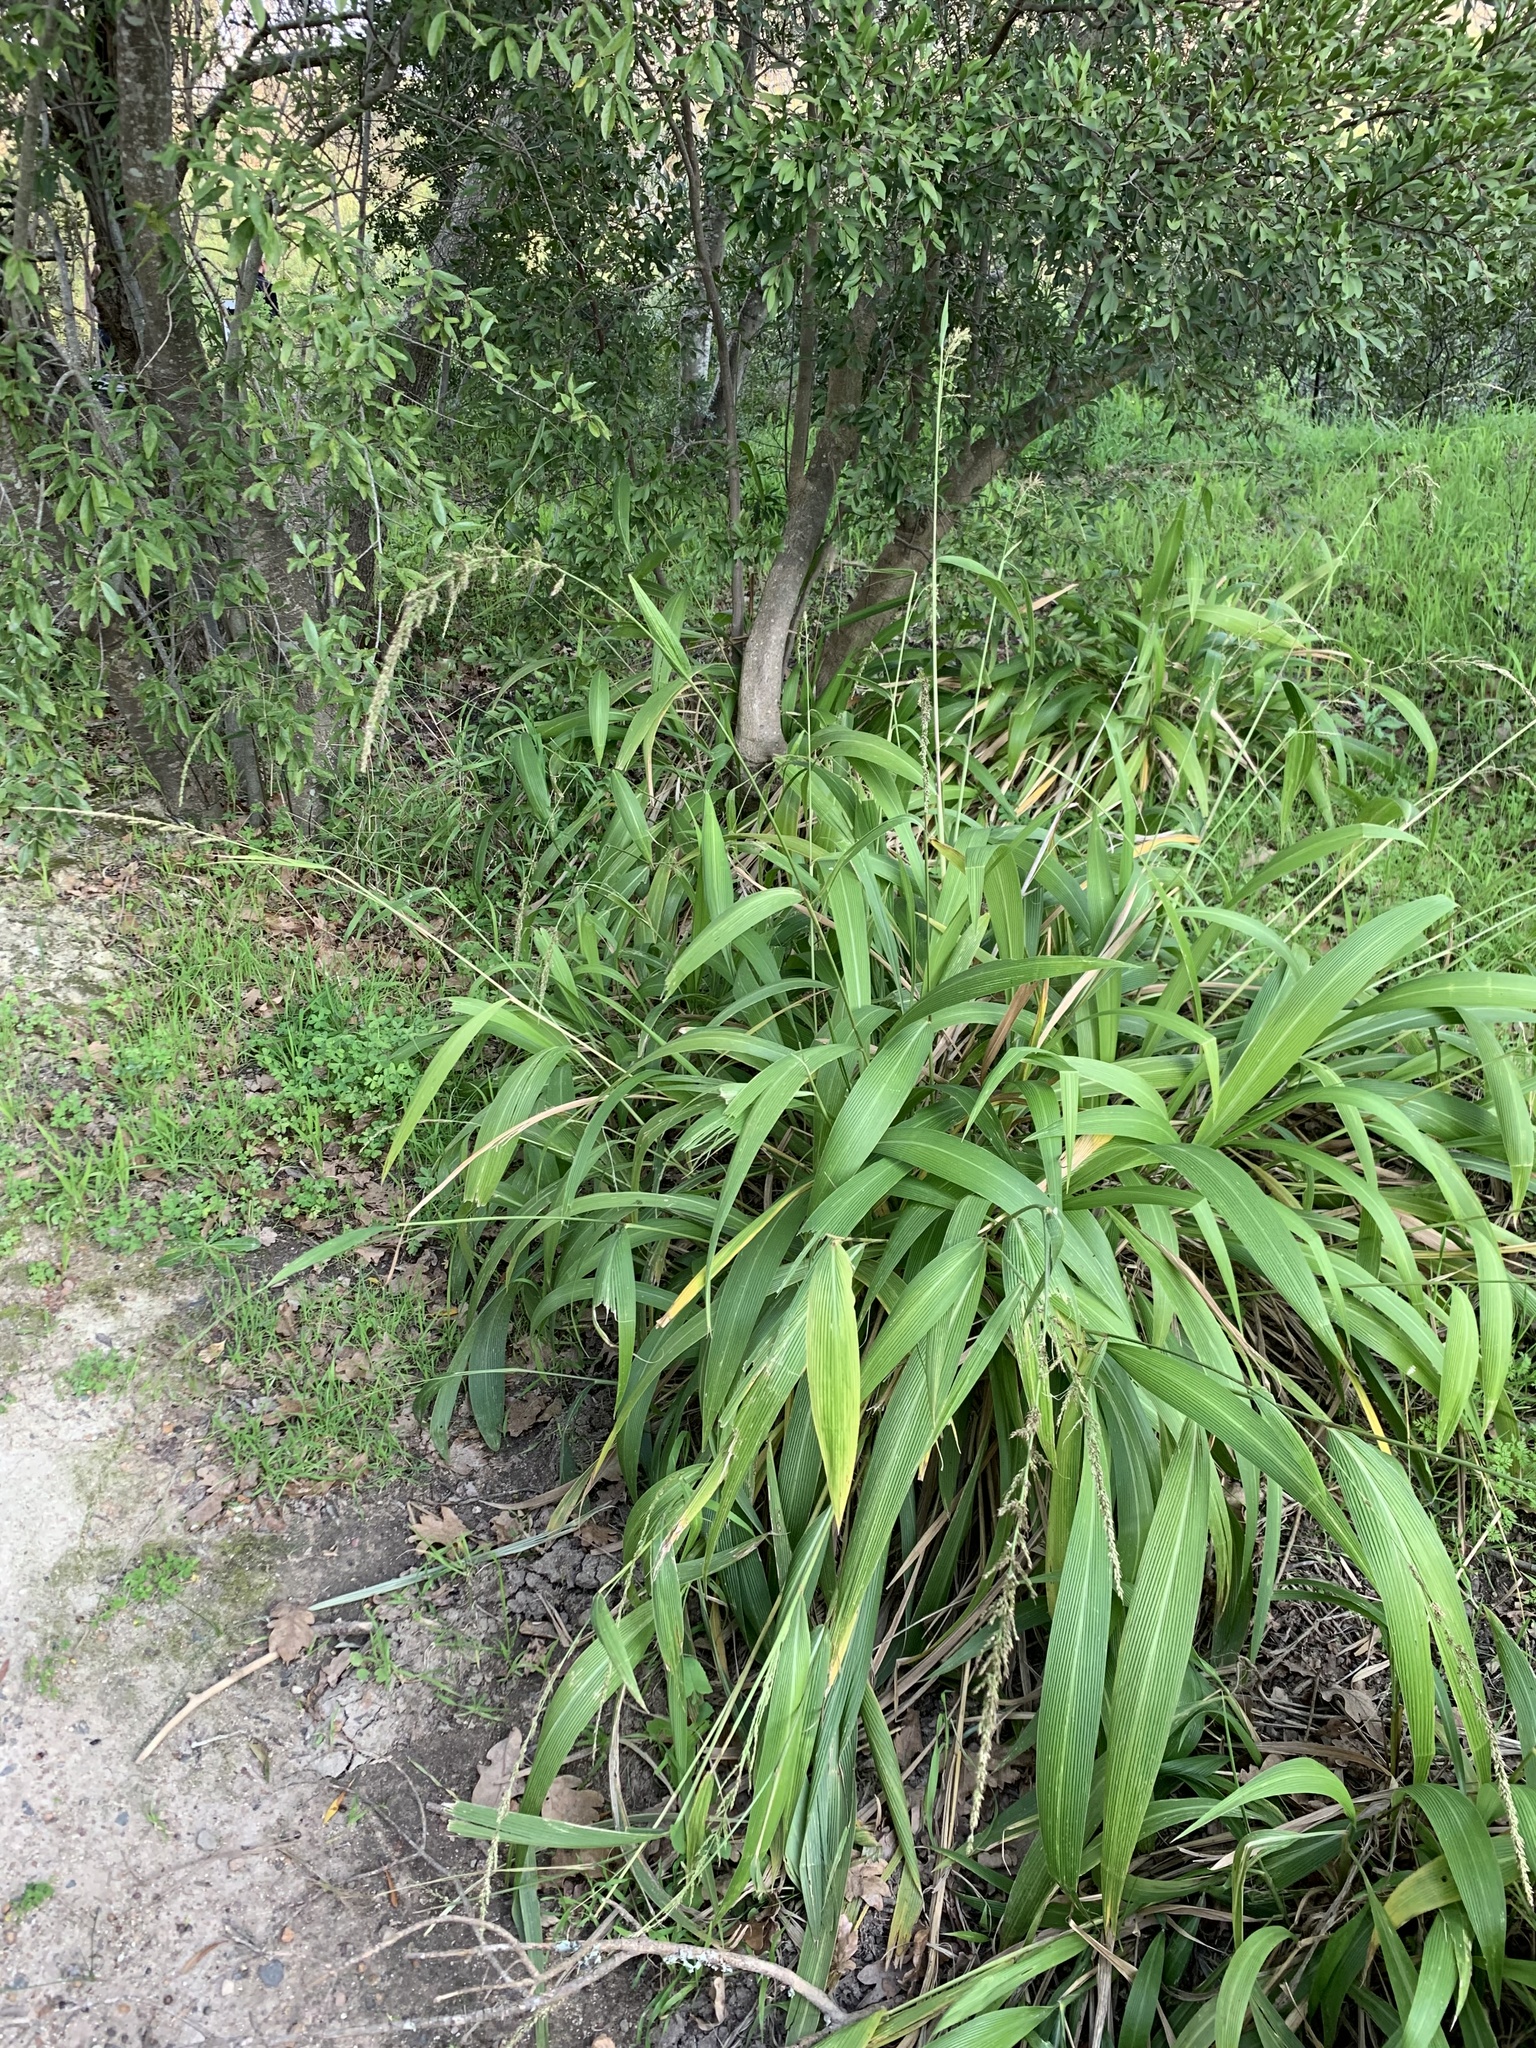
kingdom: Plantae
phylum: Tracheophyta
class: Liliopsida
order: Poales
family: Poaceae
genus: Setaria
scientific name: Setaria megaphylla
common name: Bigleaf bristlegrass
